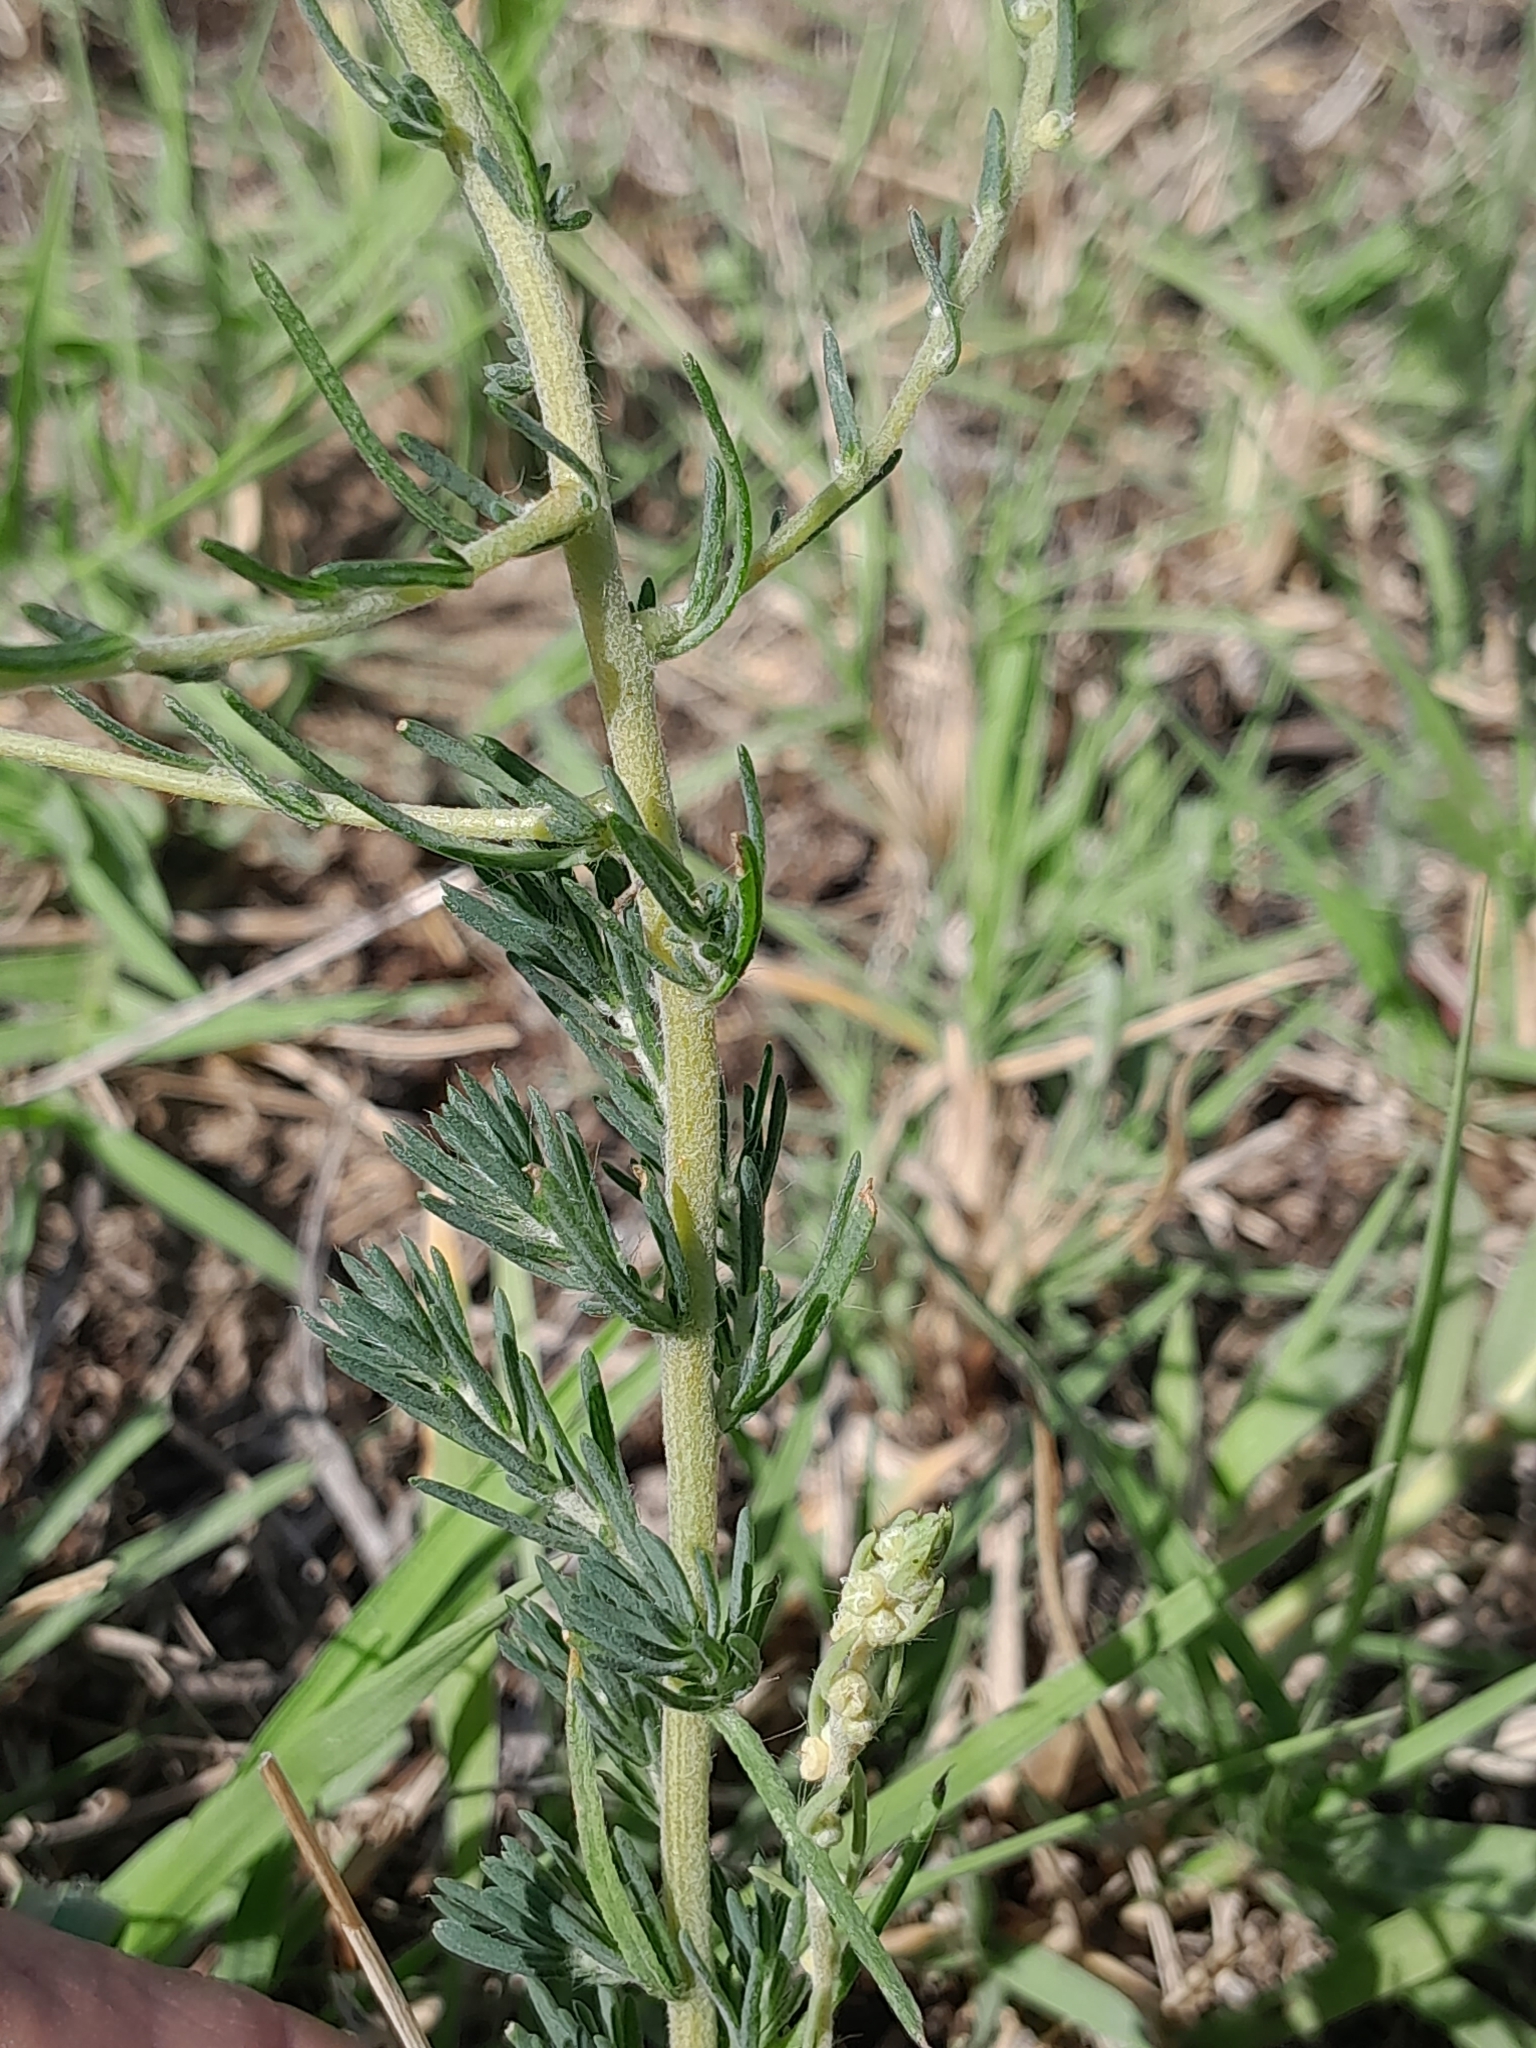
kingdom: Plantae
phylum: Tracheophyta
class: Magnoliopsida
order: Caryophyllales
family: Amaranthaceae
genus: Bassia
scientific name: Bassia laniflora
